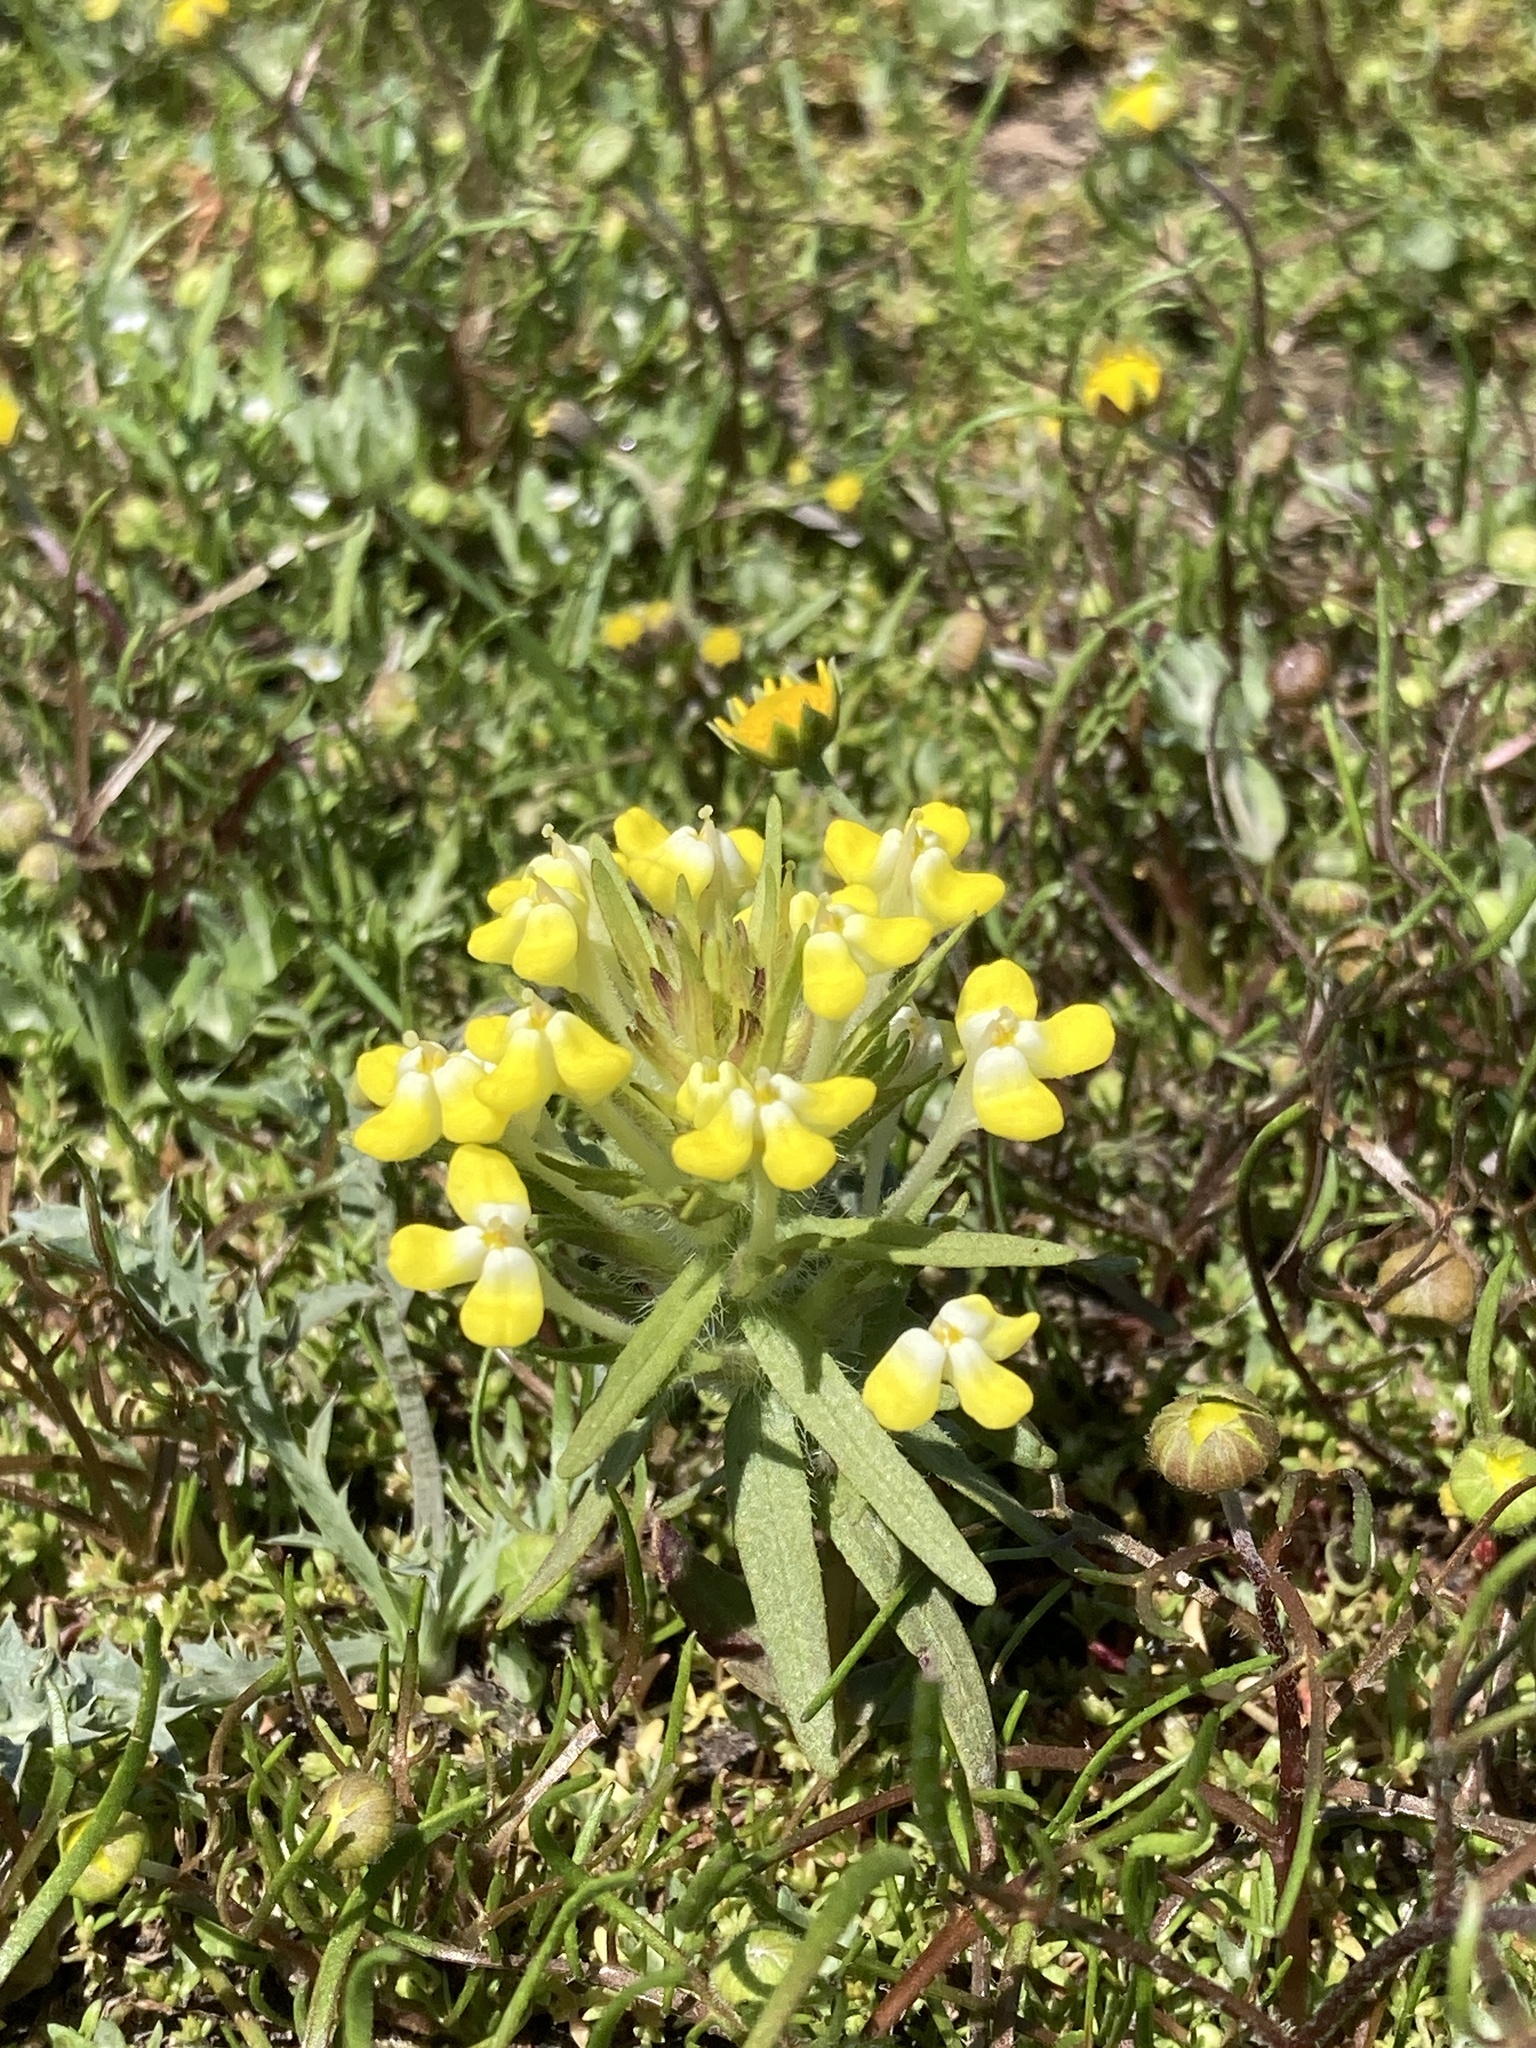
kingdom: Plantae
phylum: Tracheophyta
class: Magnoliopsida
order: Lamiales
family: Orobanchaceae
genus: Castilleja
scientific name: Castilleja campestris
